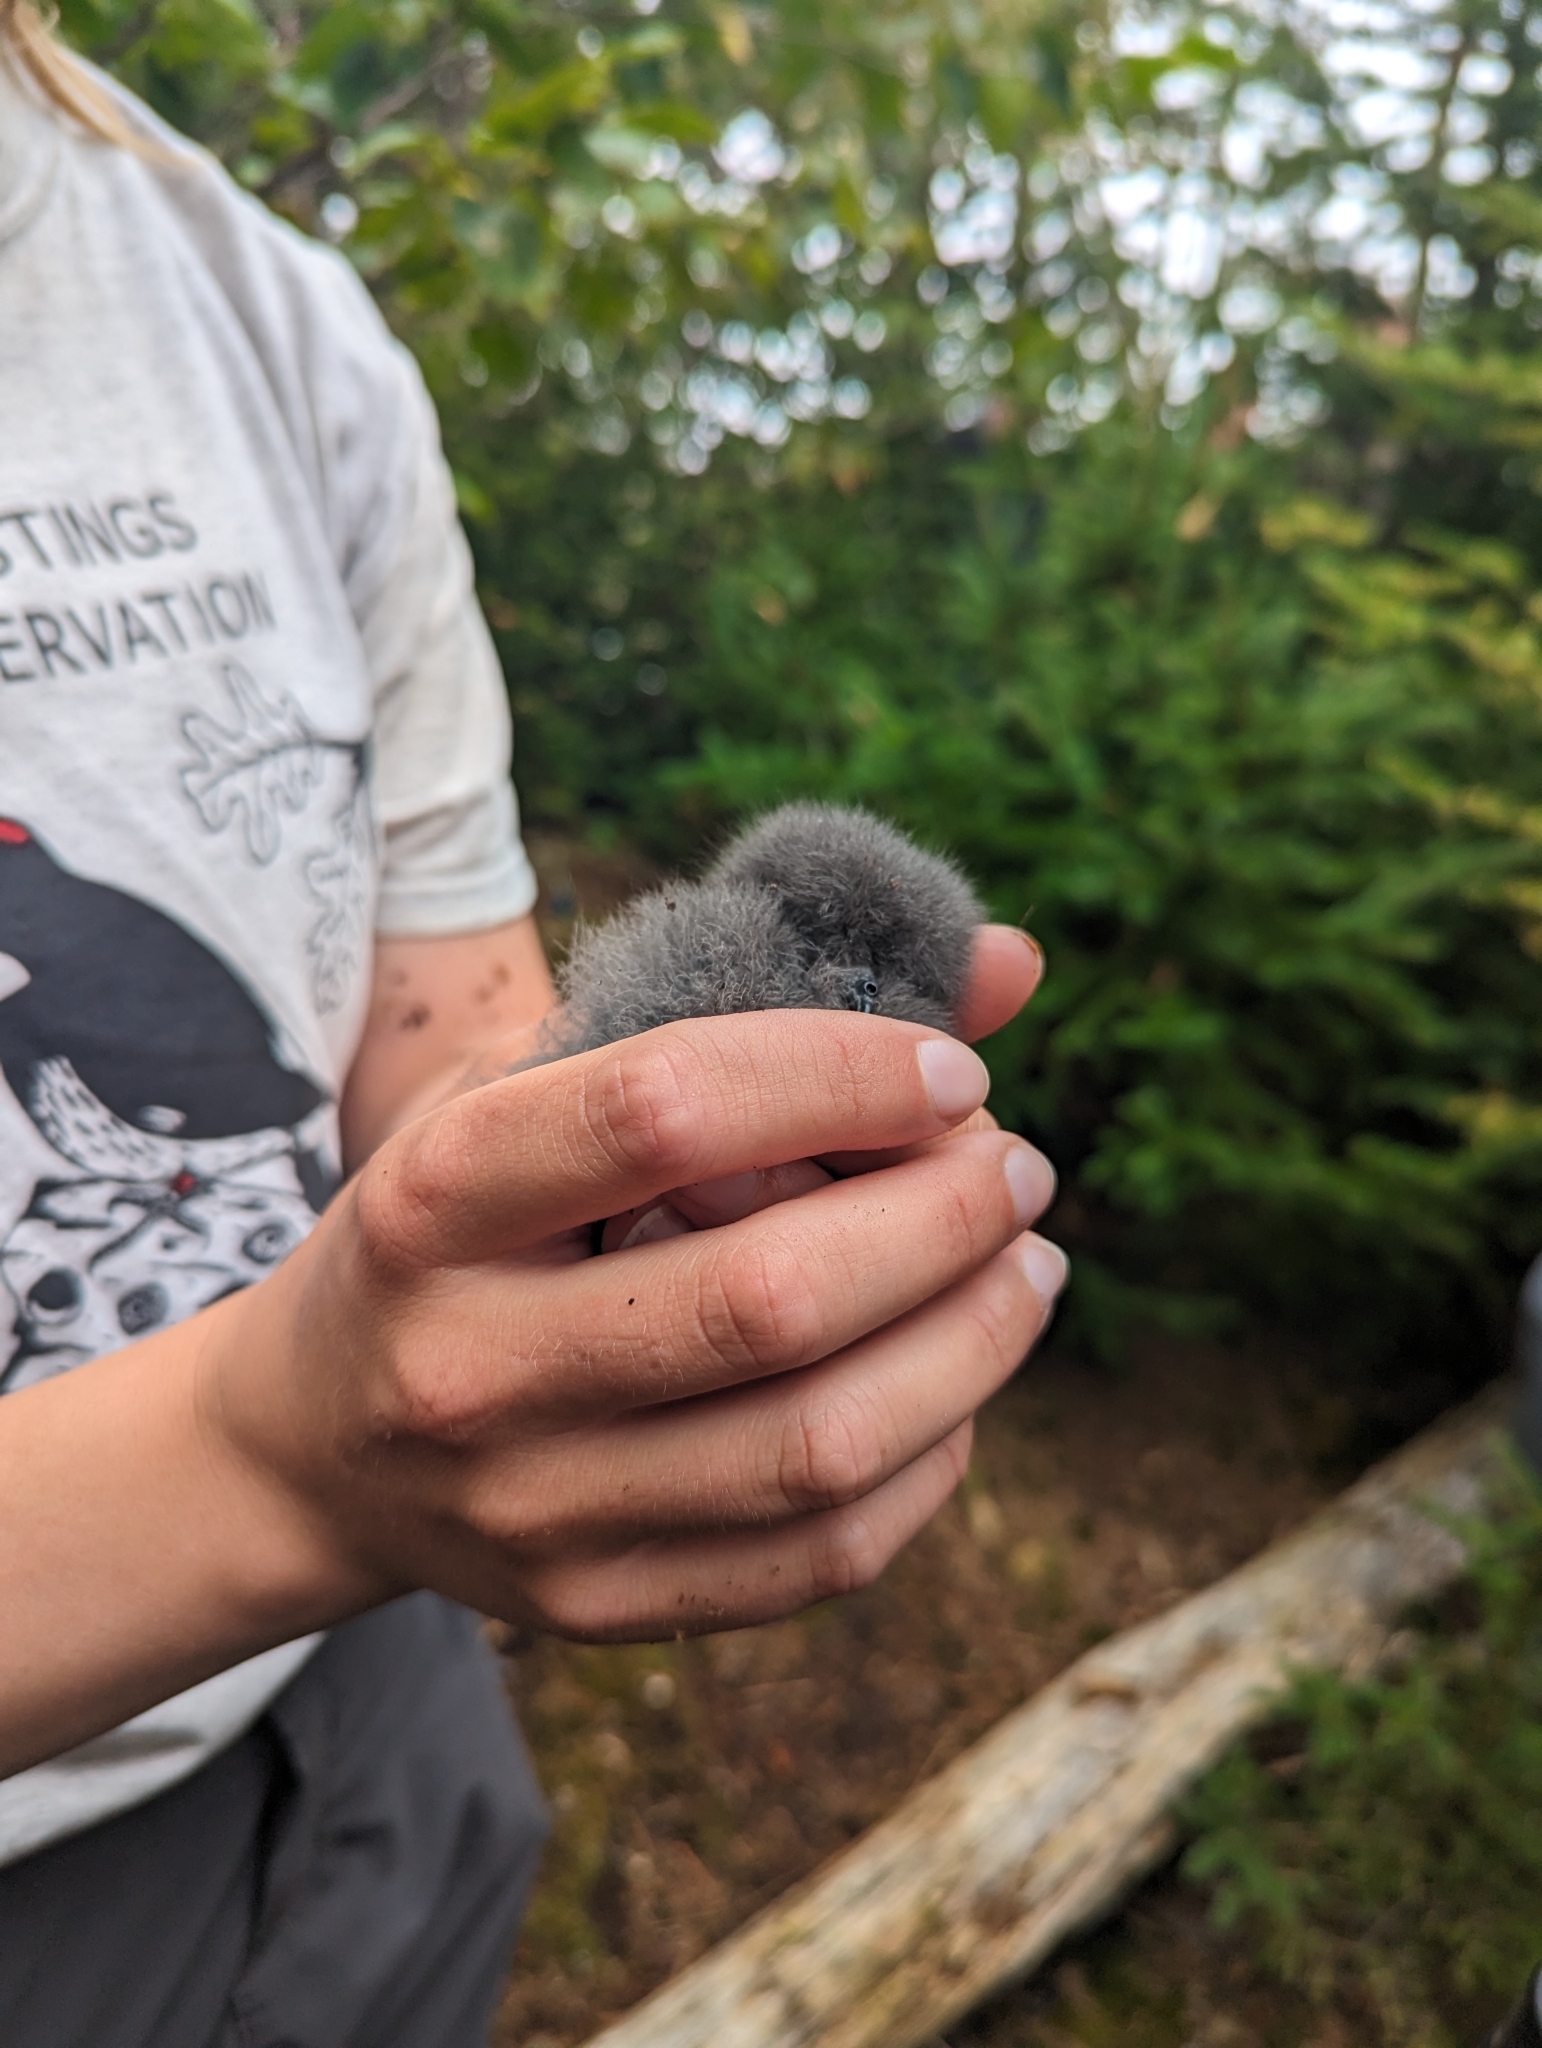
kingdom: Animalia
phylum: Chordata
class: Aves
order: Procellariiformes
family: Hydrobatidae
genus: Oceanodroma
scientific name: Oceanodroma leucorhoa
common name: Leach's storm-petrel
